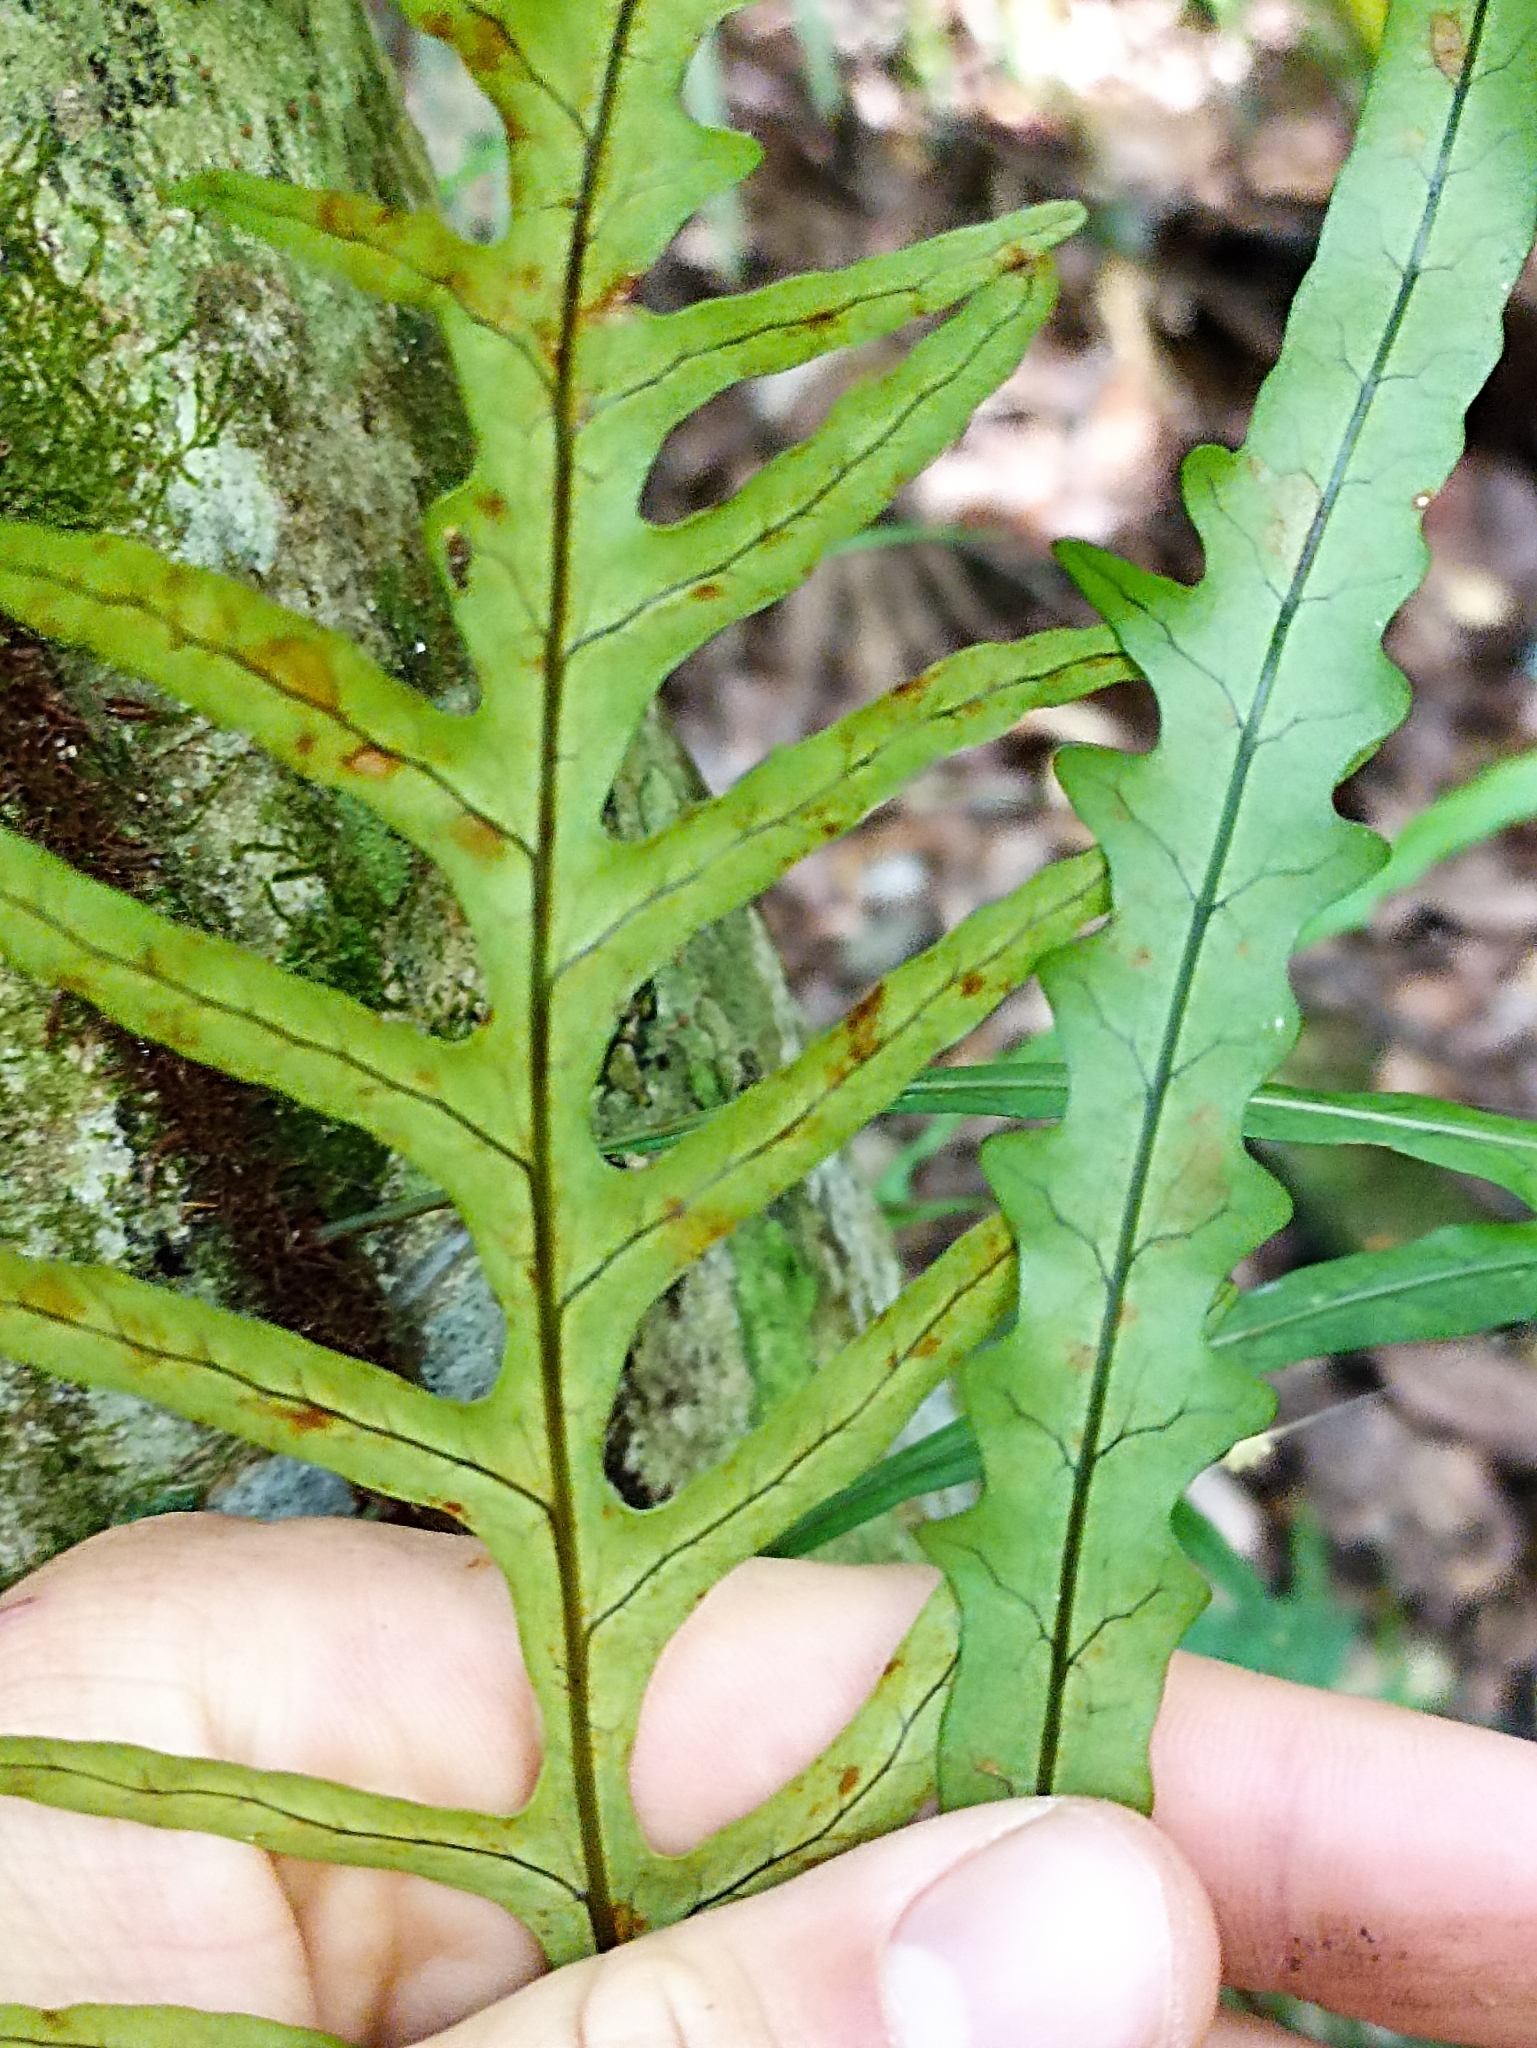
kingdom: Plantae
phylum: Tracheophyta
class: Polypodiopsida
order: Polypodiales
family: Polypodiaceae
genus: Lecanopteris
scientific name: Lecanopteris scandens
